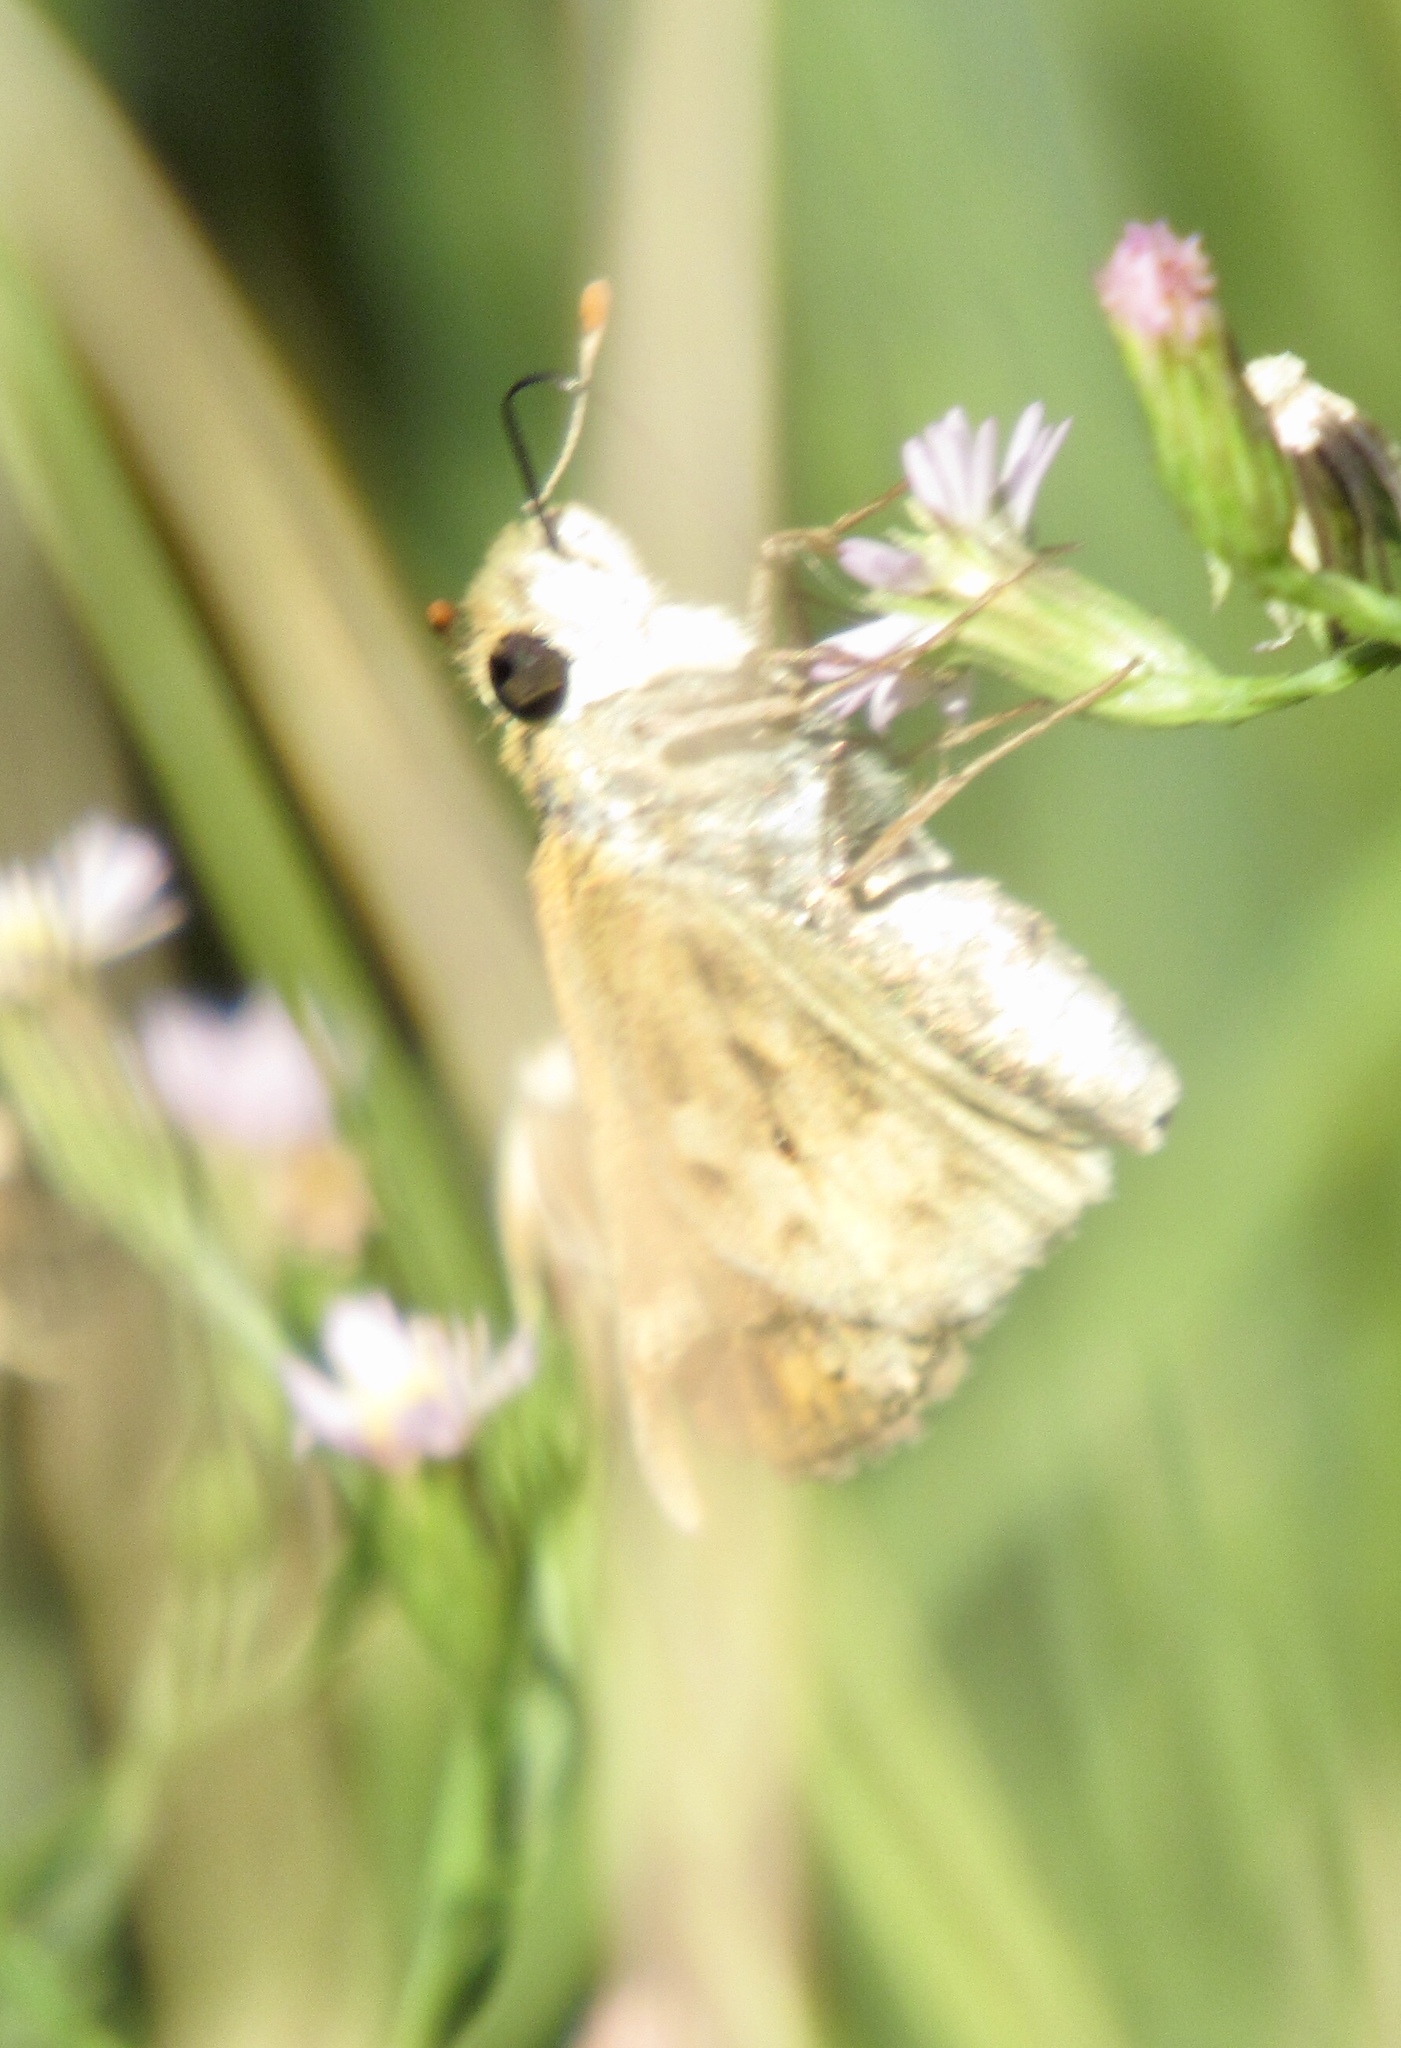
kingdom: Animalia
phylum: Arthropoda
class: Insecta
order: Lepidoptera
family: Hesperiidae
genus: Hylephila
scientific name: Hylephila phyleus
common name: Fiery skipper
